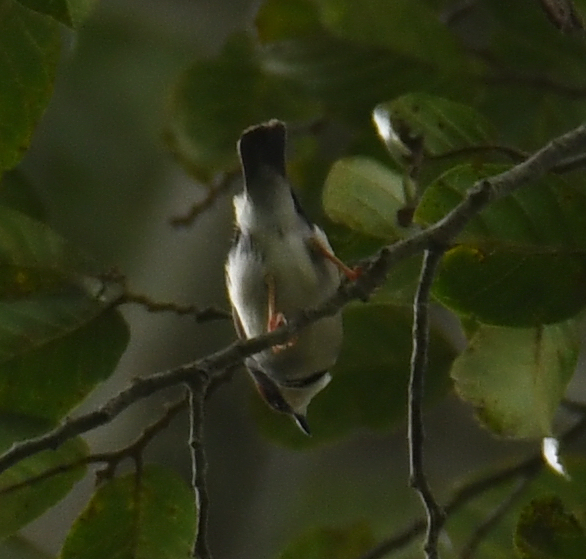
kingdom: Animalia
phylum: Chordata
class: Aves
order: Passeriformes
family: Cisticolidae
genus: Eremomela
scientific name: Eremomela badiceps
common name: Rufous-crowned eremomela
